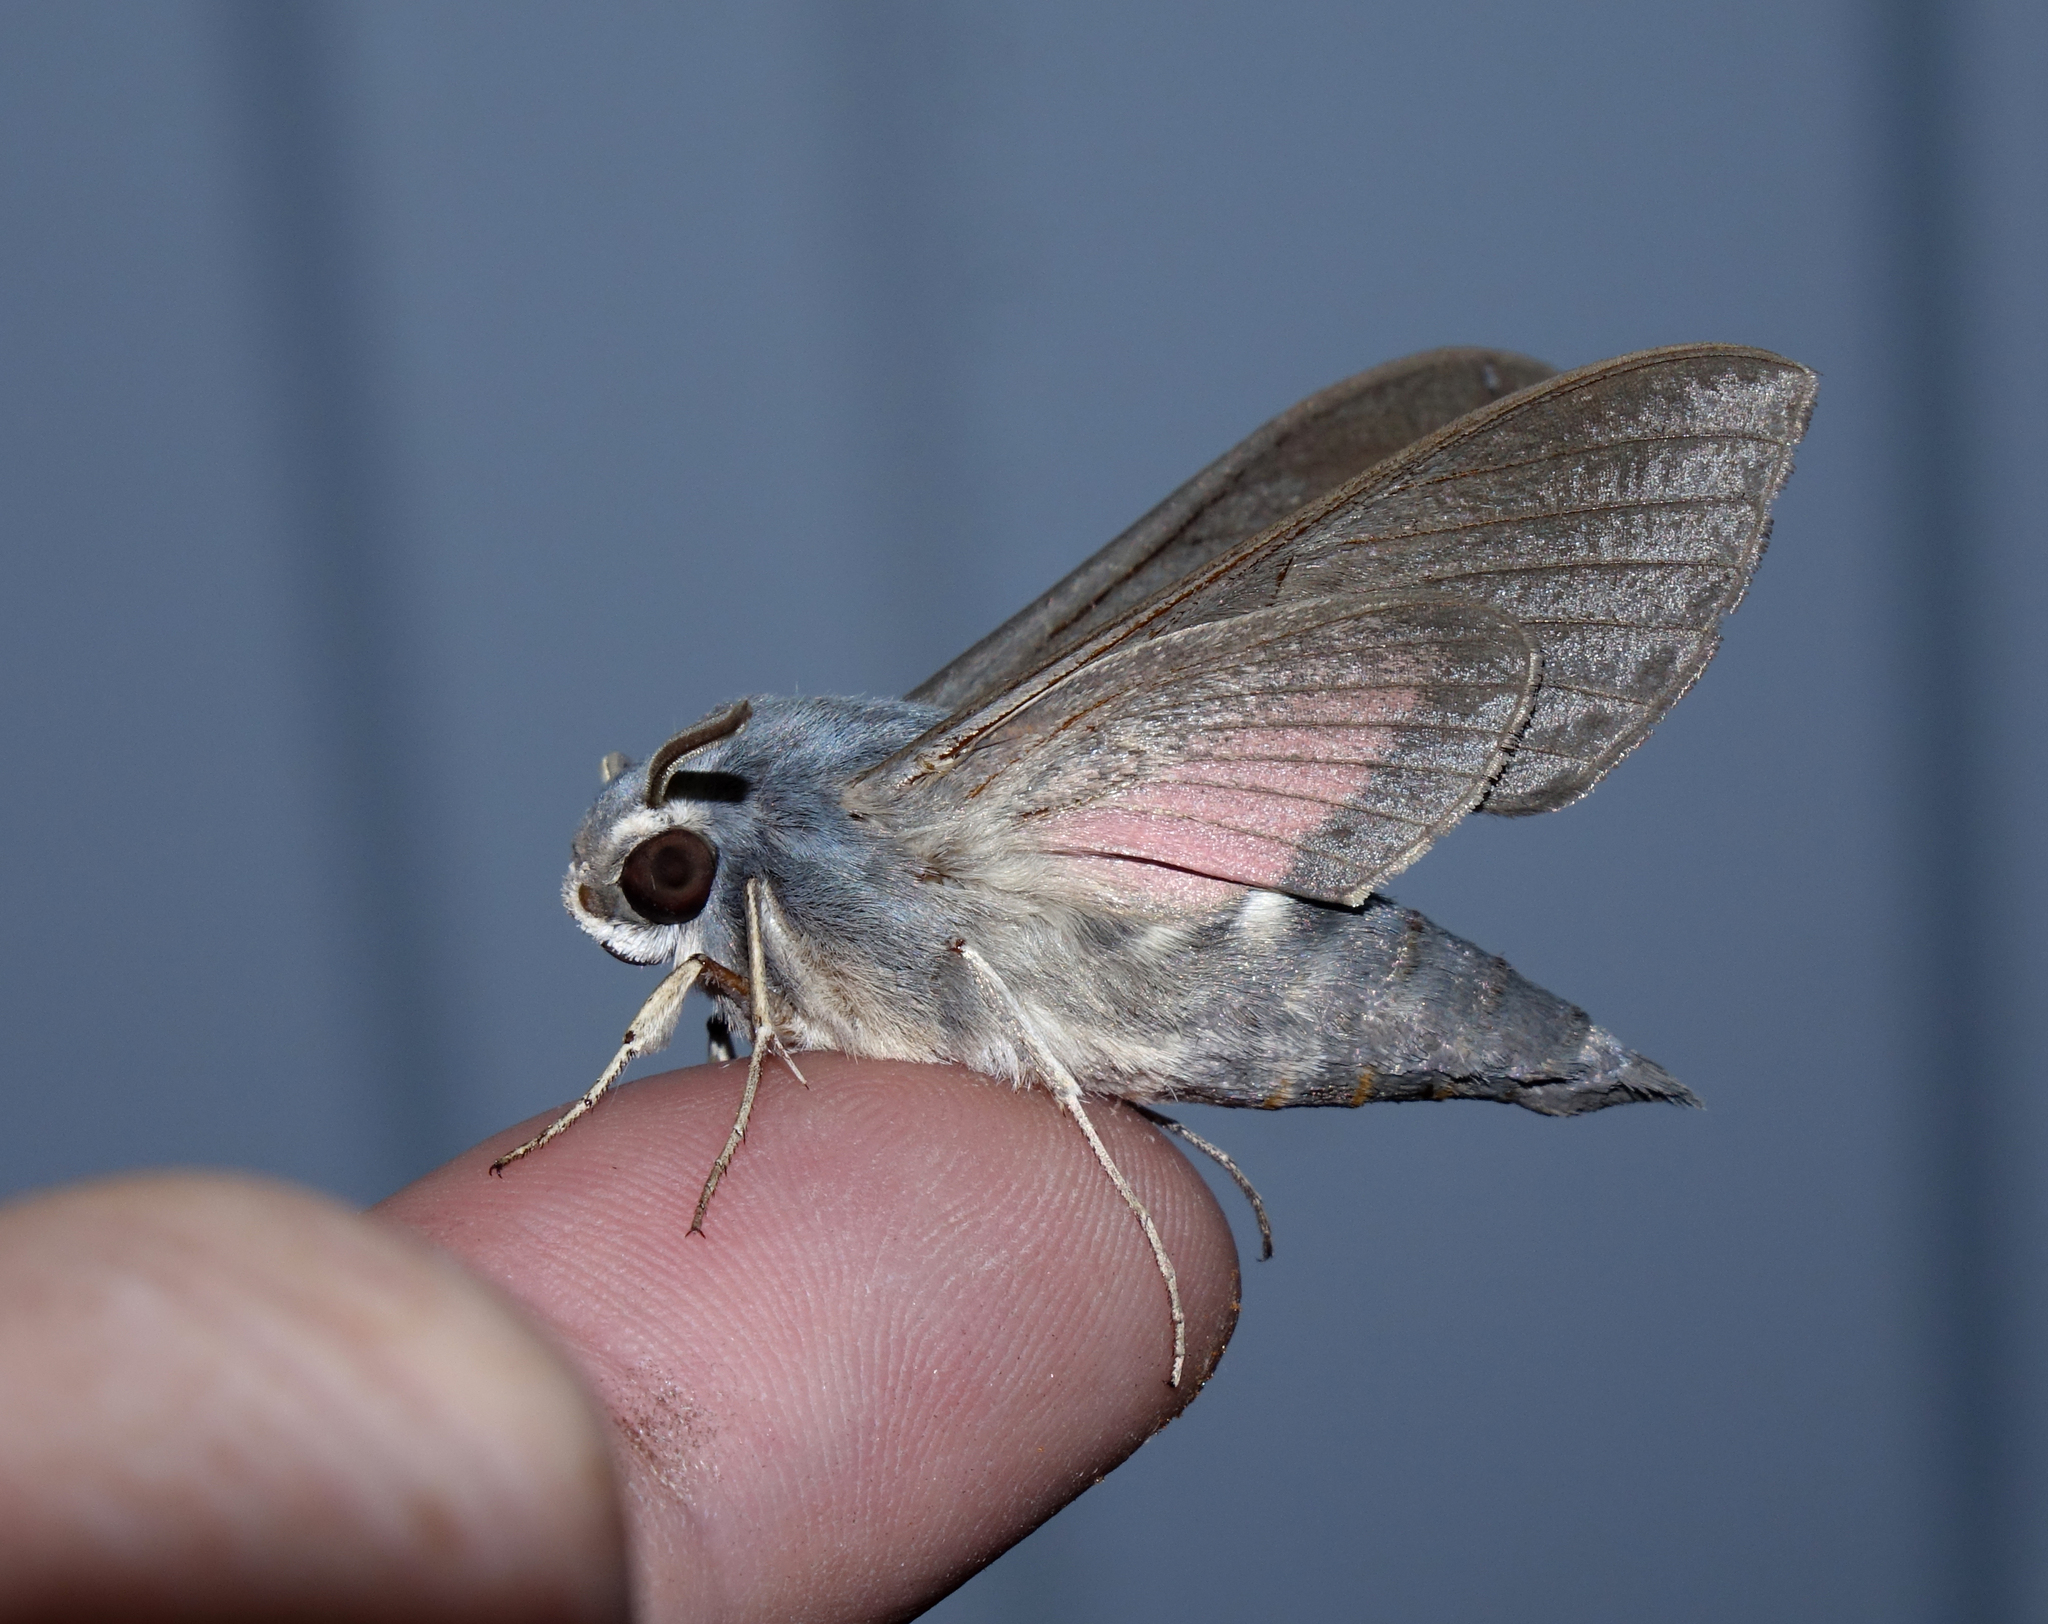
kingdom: Animalia
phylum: Arthropoda
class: Insecta
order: Lepidoptera
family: Sphingidae
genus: Hyles
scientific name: Hyles vespertilio
